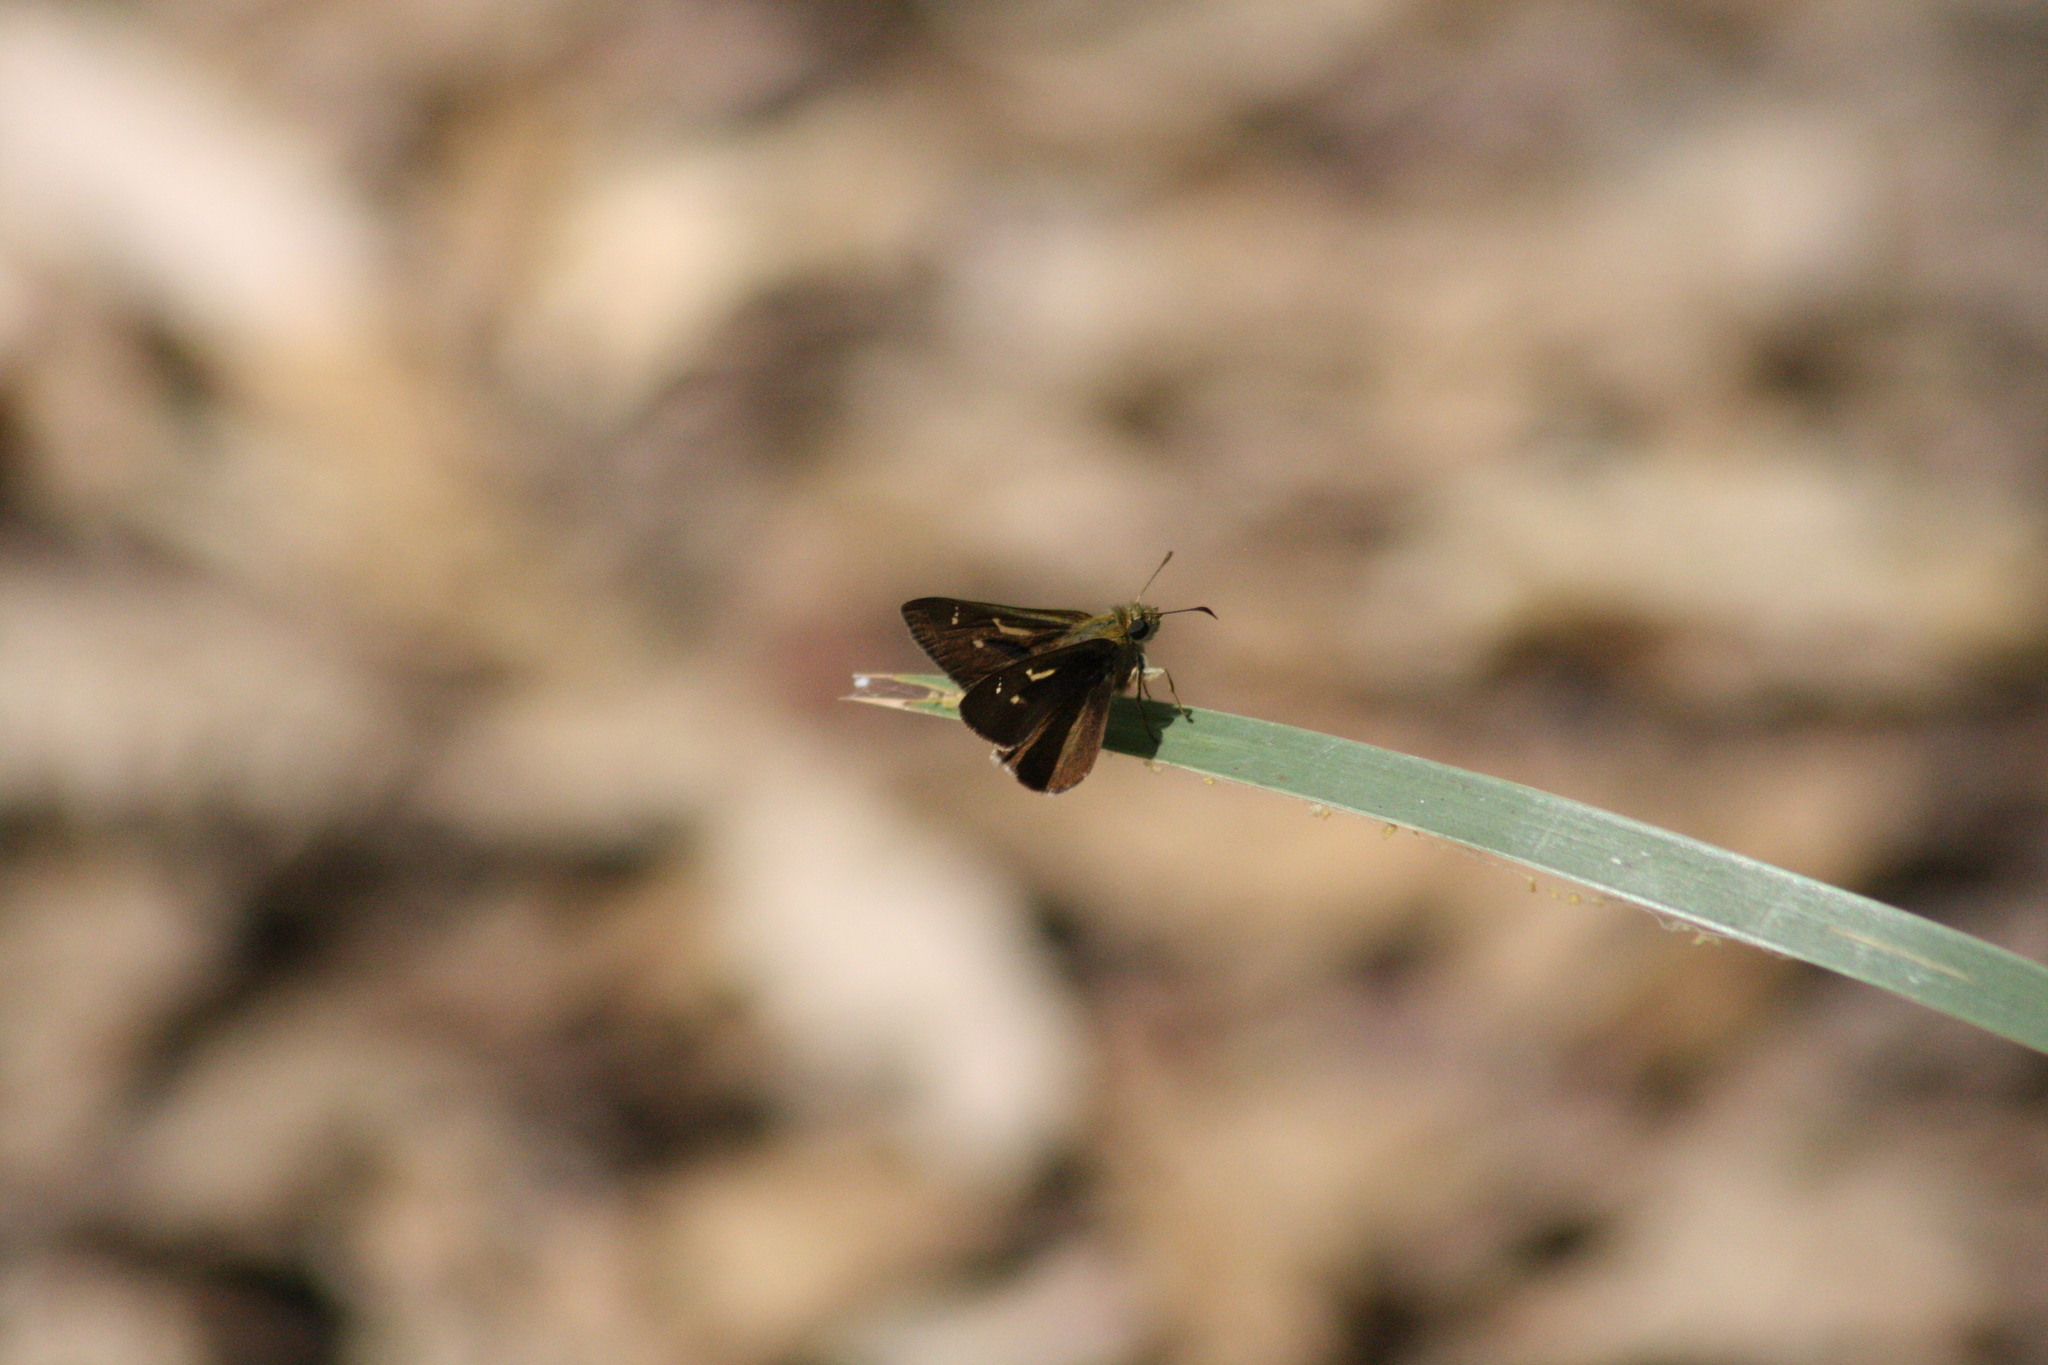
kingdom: Animalia
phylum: Arthropoda
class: Insecta
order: Lepidoptera
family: Hesperiidae
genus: Toxidia
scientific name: Toxidia
